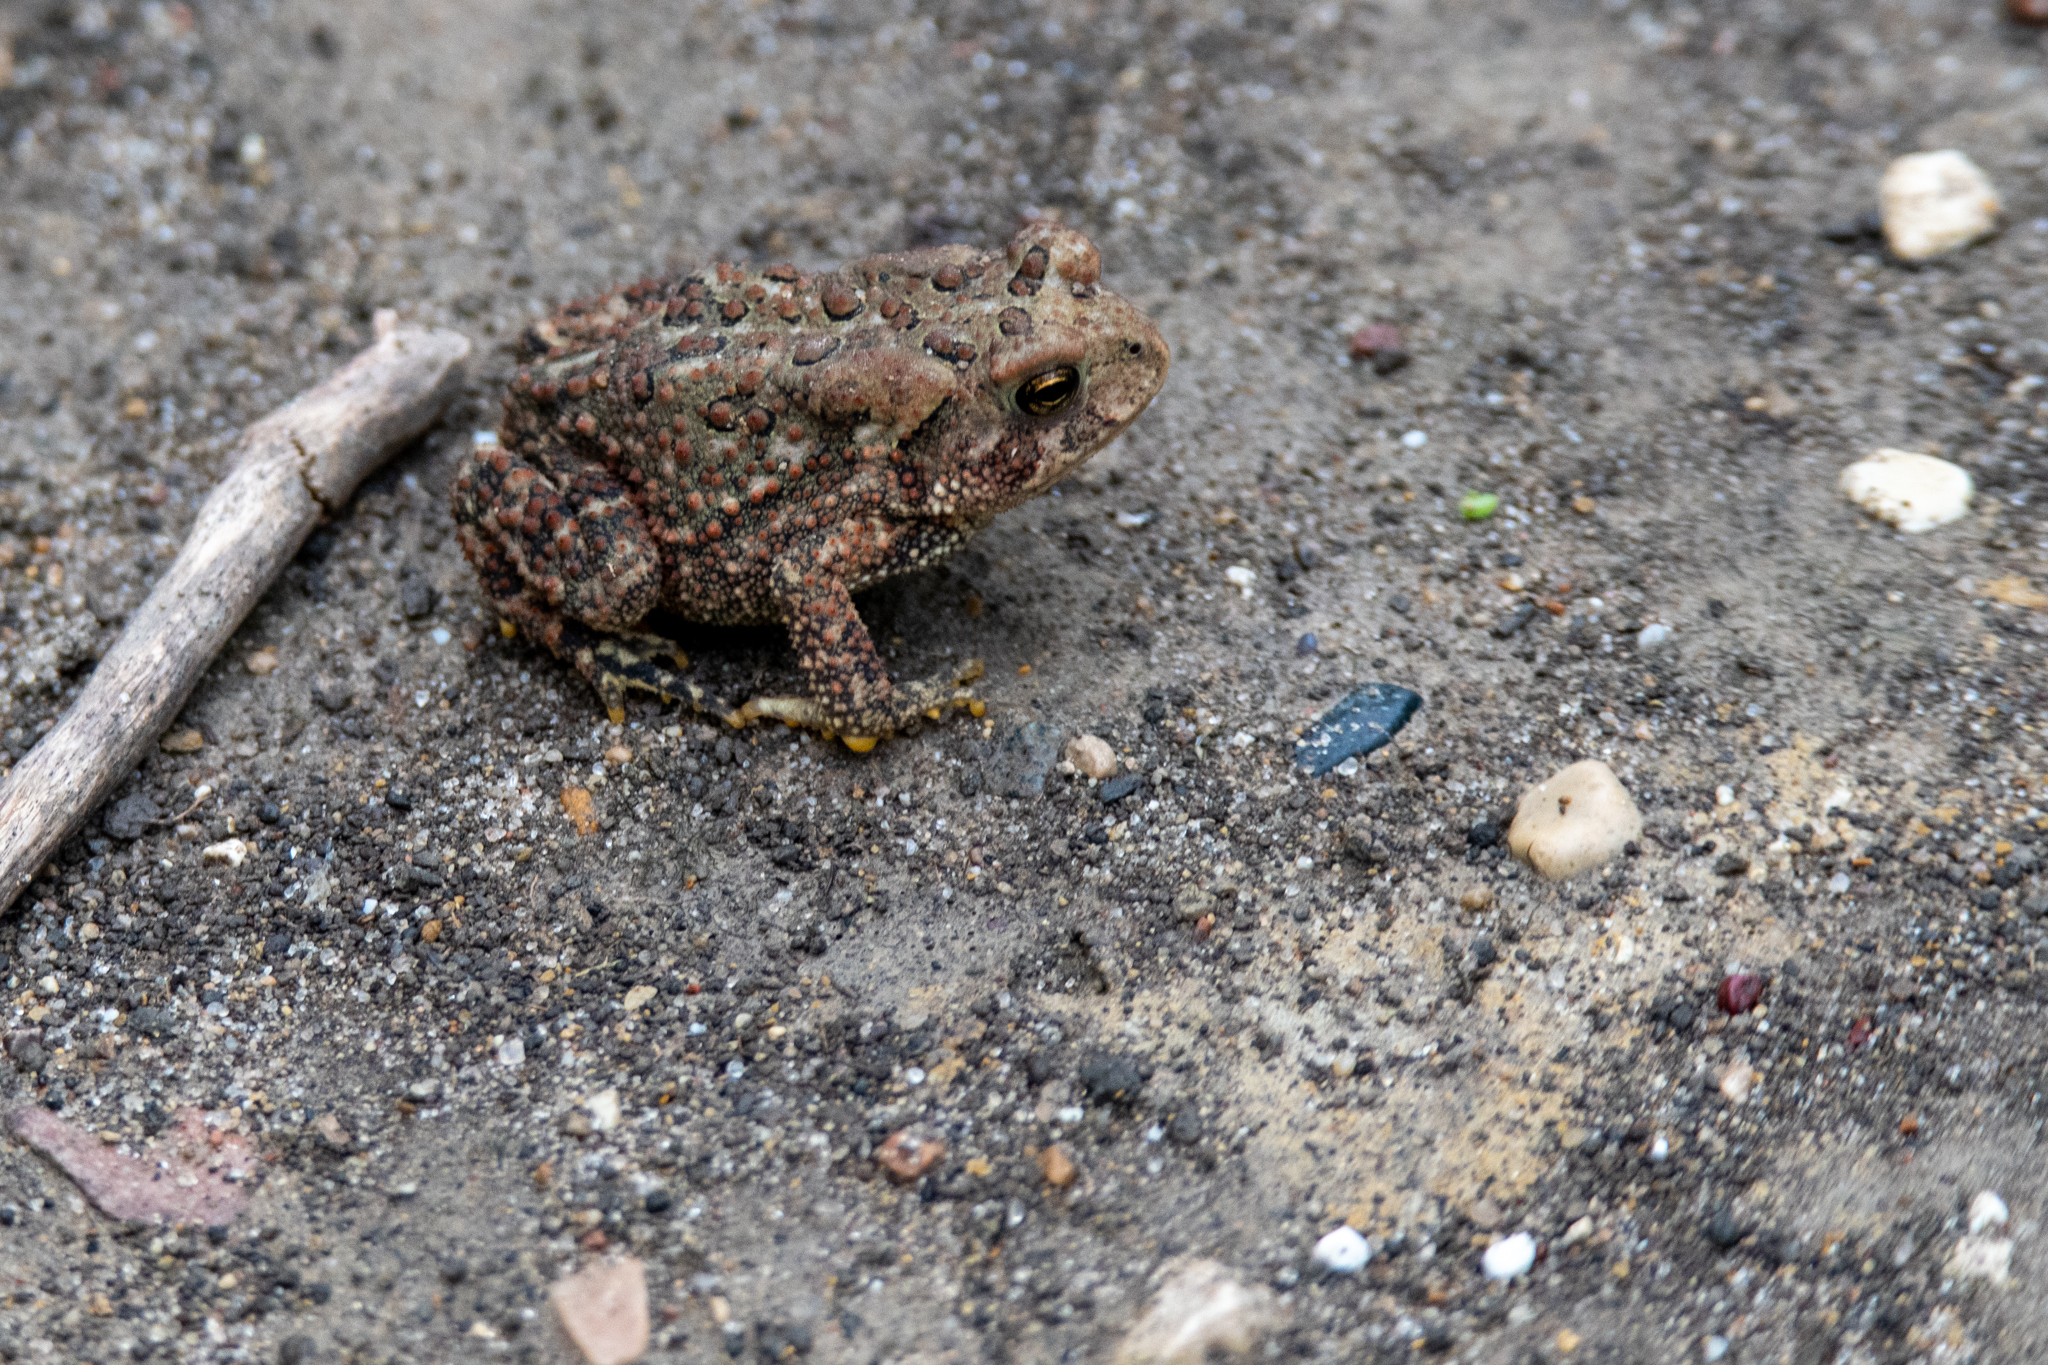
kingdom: Animalia
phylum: Chordata
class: Amphibia
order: Anura
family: Bufonidae
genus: Anaxyrus
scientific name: Anaxyrus americanus
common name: American toad
